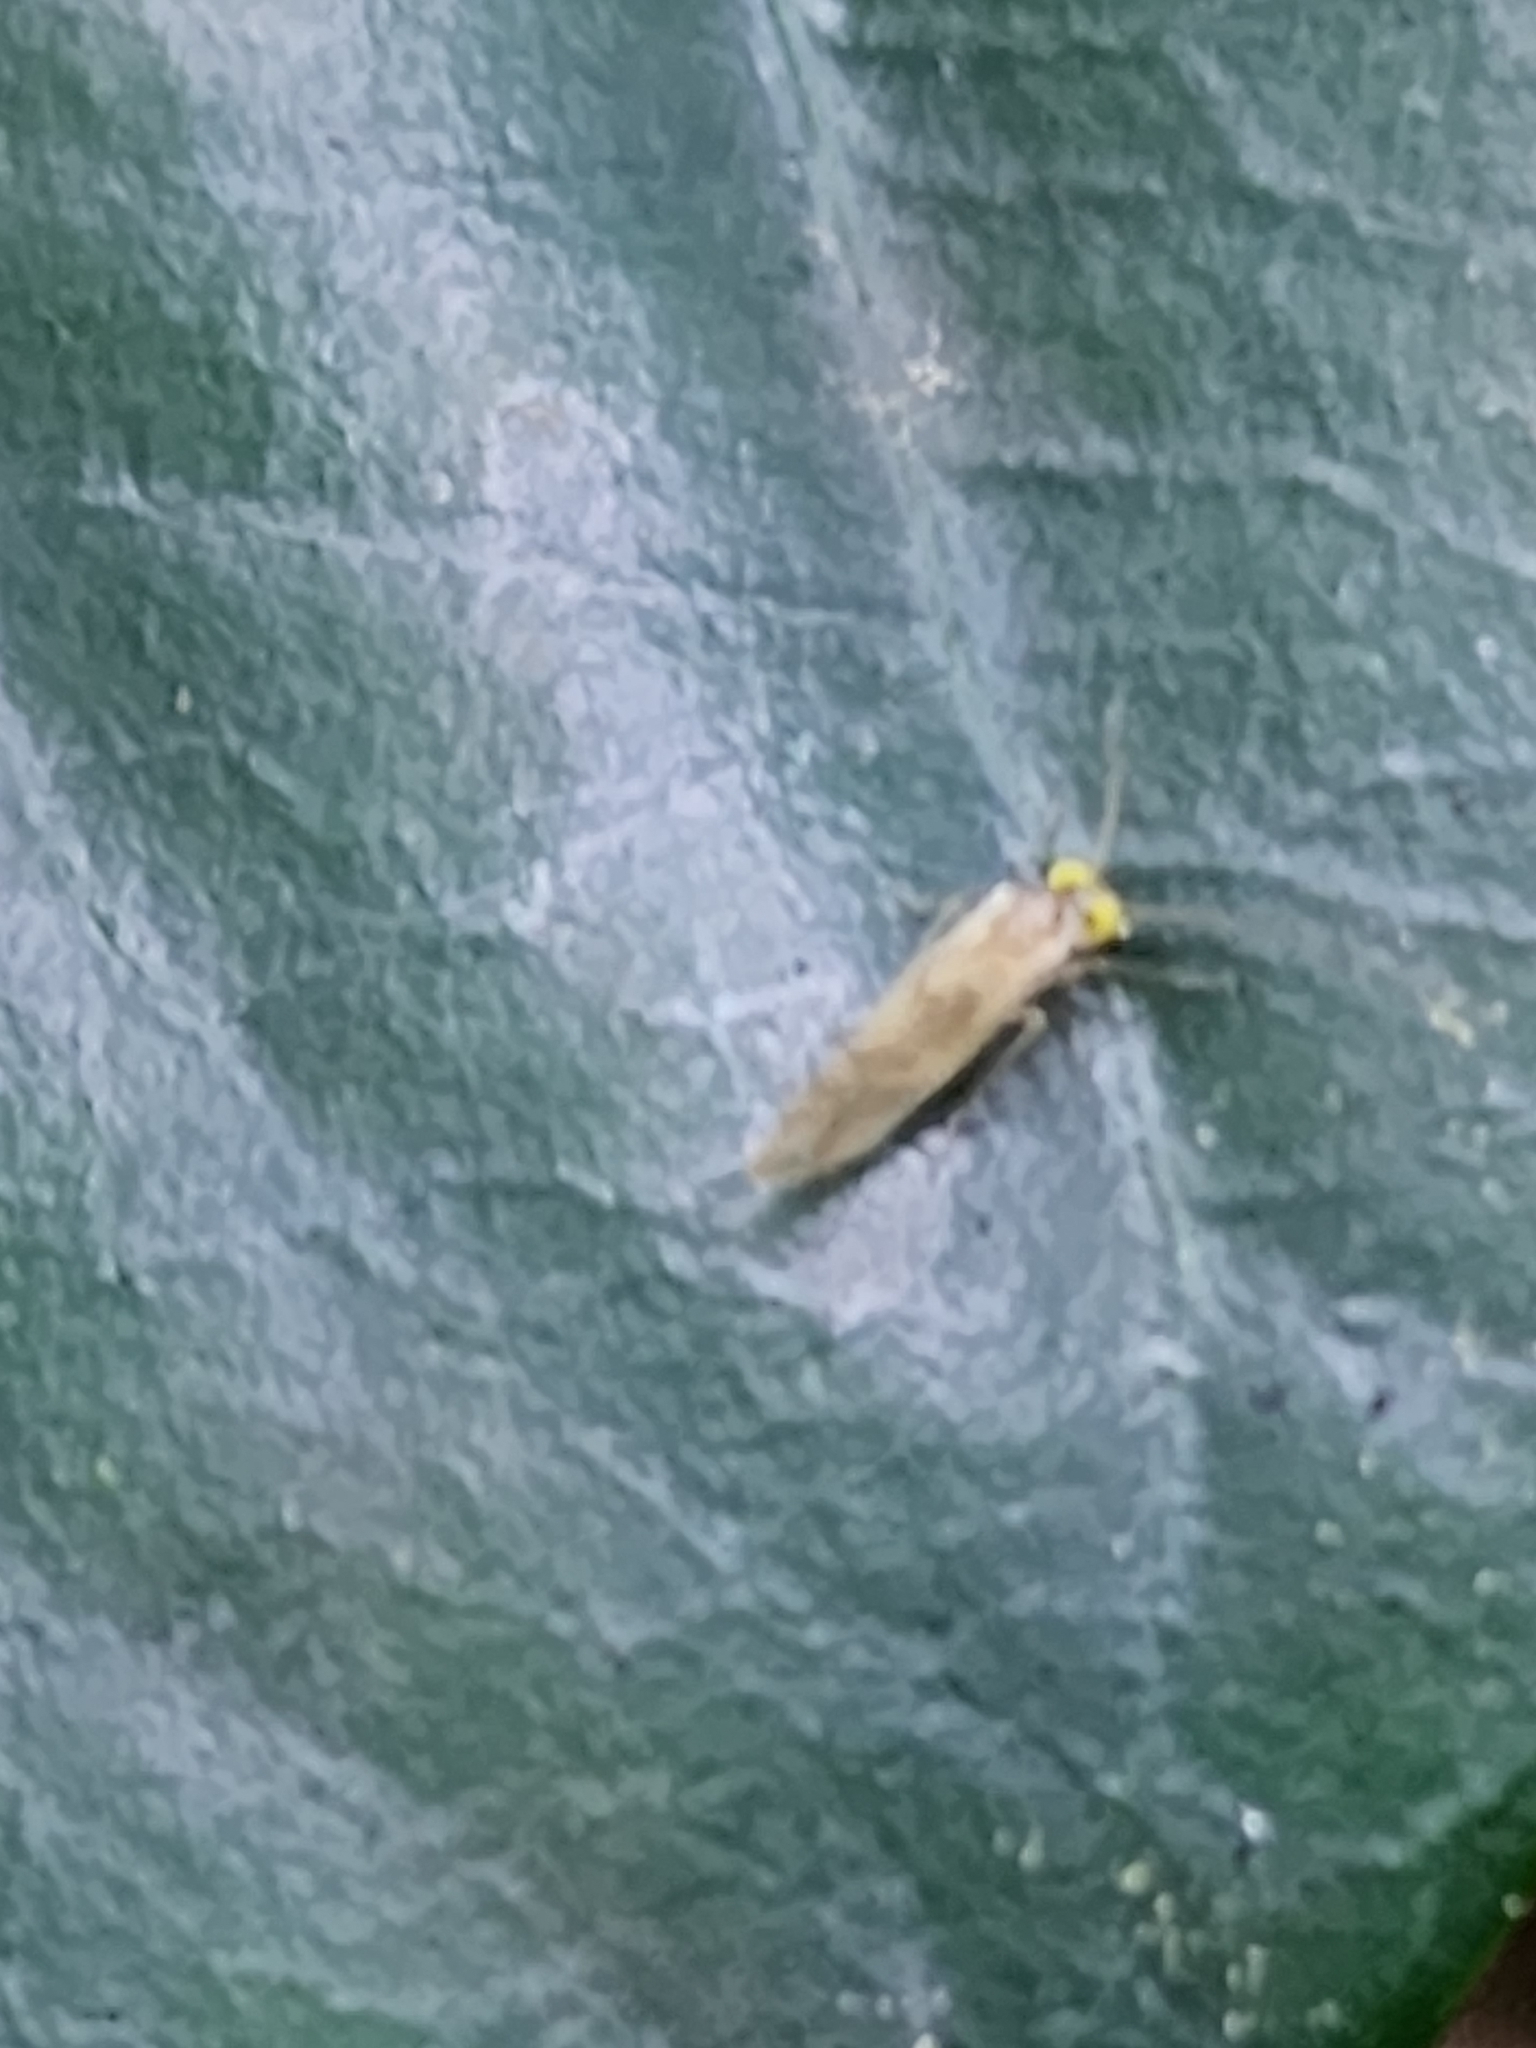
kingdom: Animalia
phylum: Arthropoda
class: Insecta
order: Psocodea
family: Paracaeciliidae
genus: Xanthocaecilius
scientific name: Xanthocaecilius sommermanae
